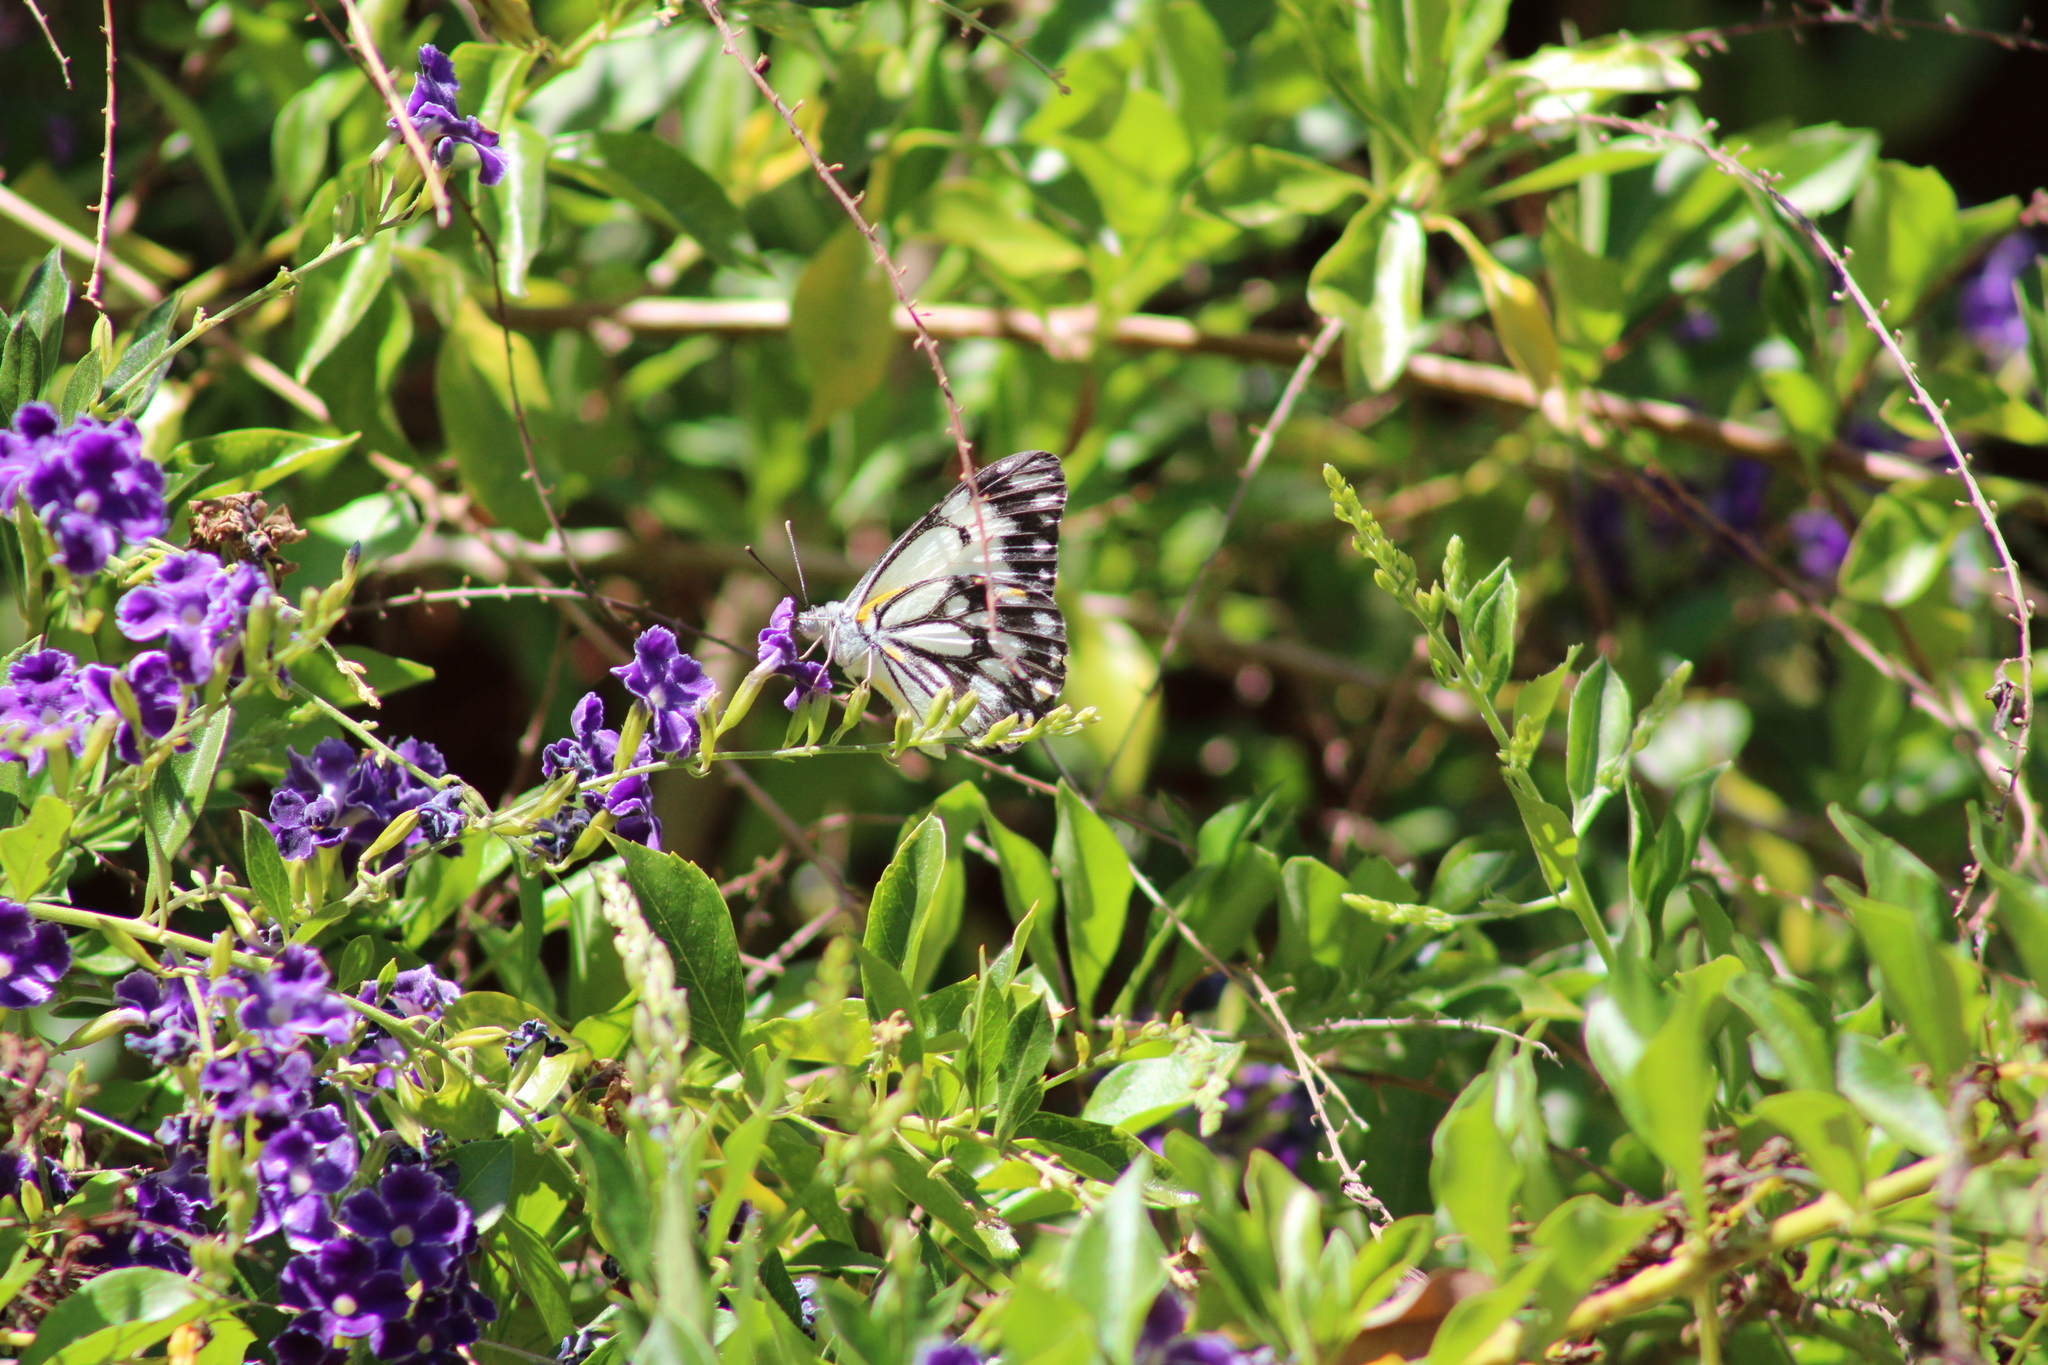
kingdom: Animalia
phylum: Arthropoda
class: Insecta
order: Lepidoptera
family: Pieridae
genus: Belenois
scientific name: Belenois java
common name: Caper white
